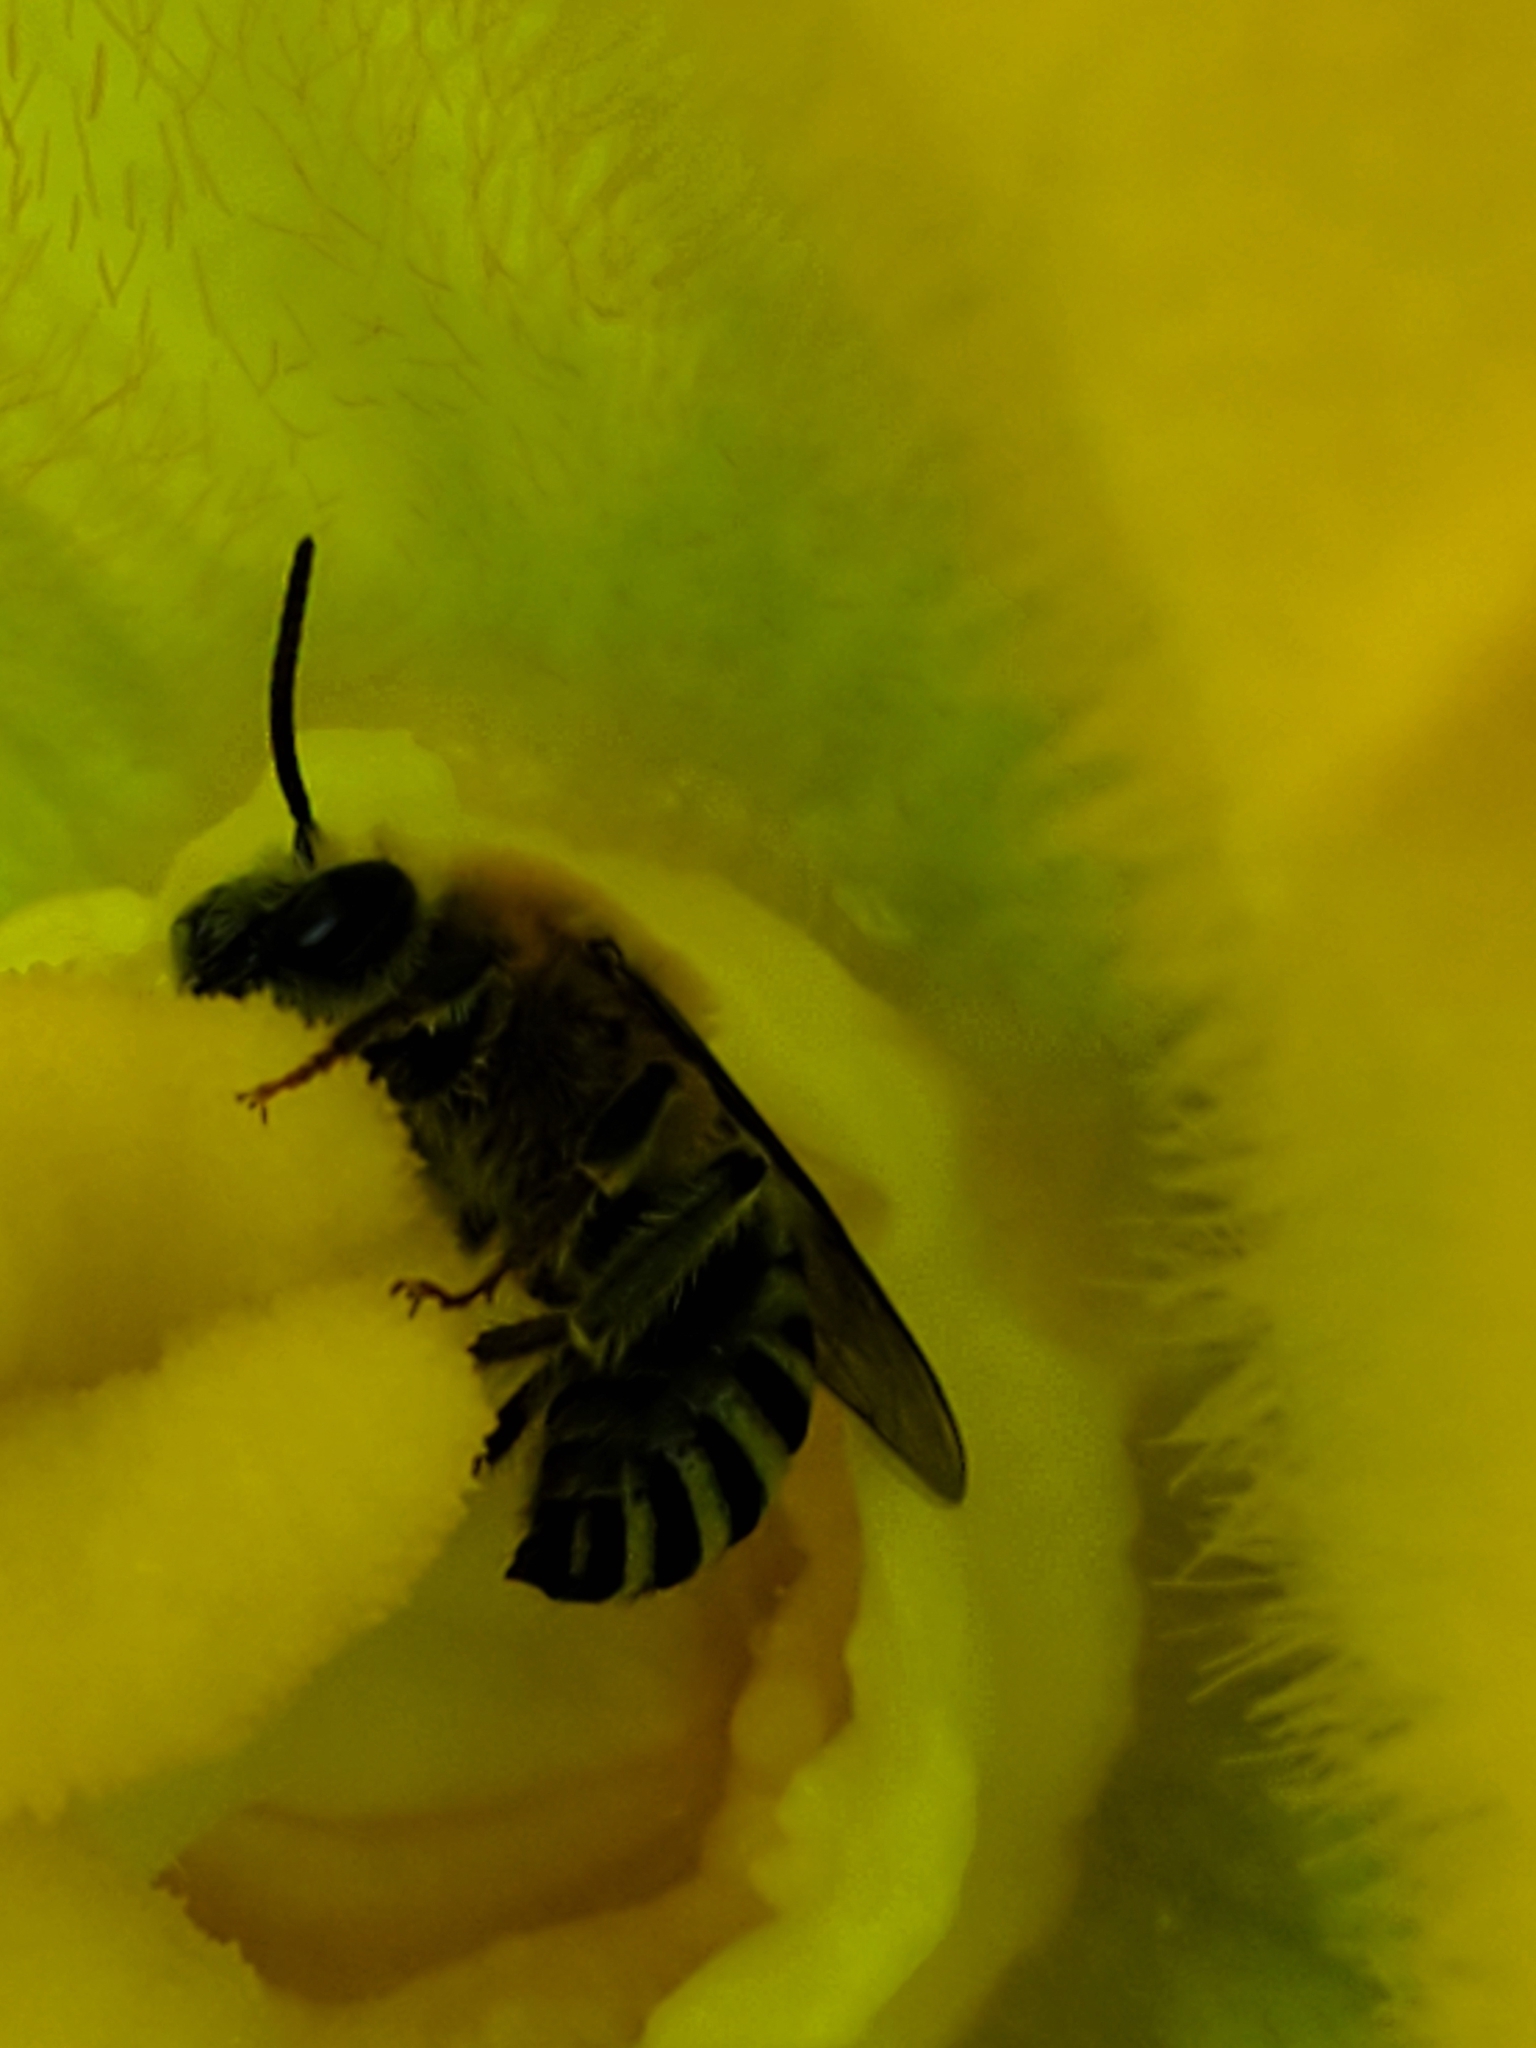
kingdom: Animalia
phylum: Arthropoda
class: Insecta
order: Hymenoptera
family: Apidae
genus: Peponapis
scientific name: Peponapis pruinosa
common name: Pruinose squash bee
